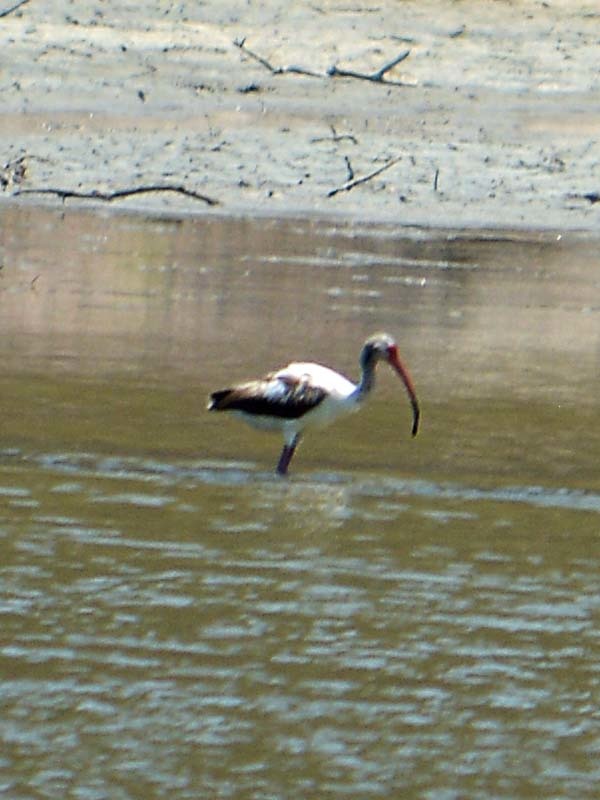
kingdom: Animalia
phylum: Chordata
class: Aves
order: Pelecaniformes
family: Threskiornithidae
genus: Eudocimus
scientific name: Eudocimus albus
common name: White ibis
